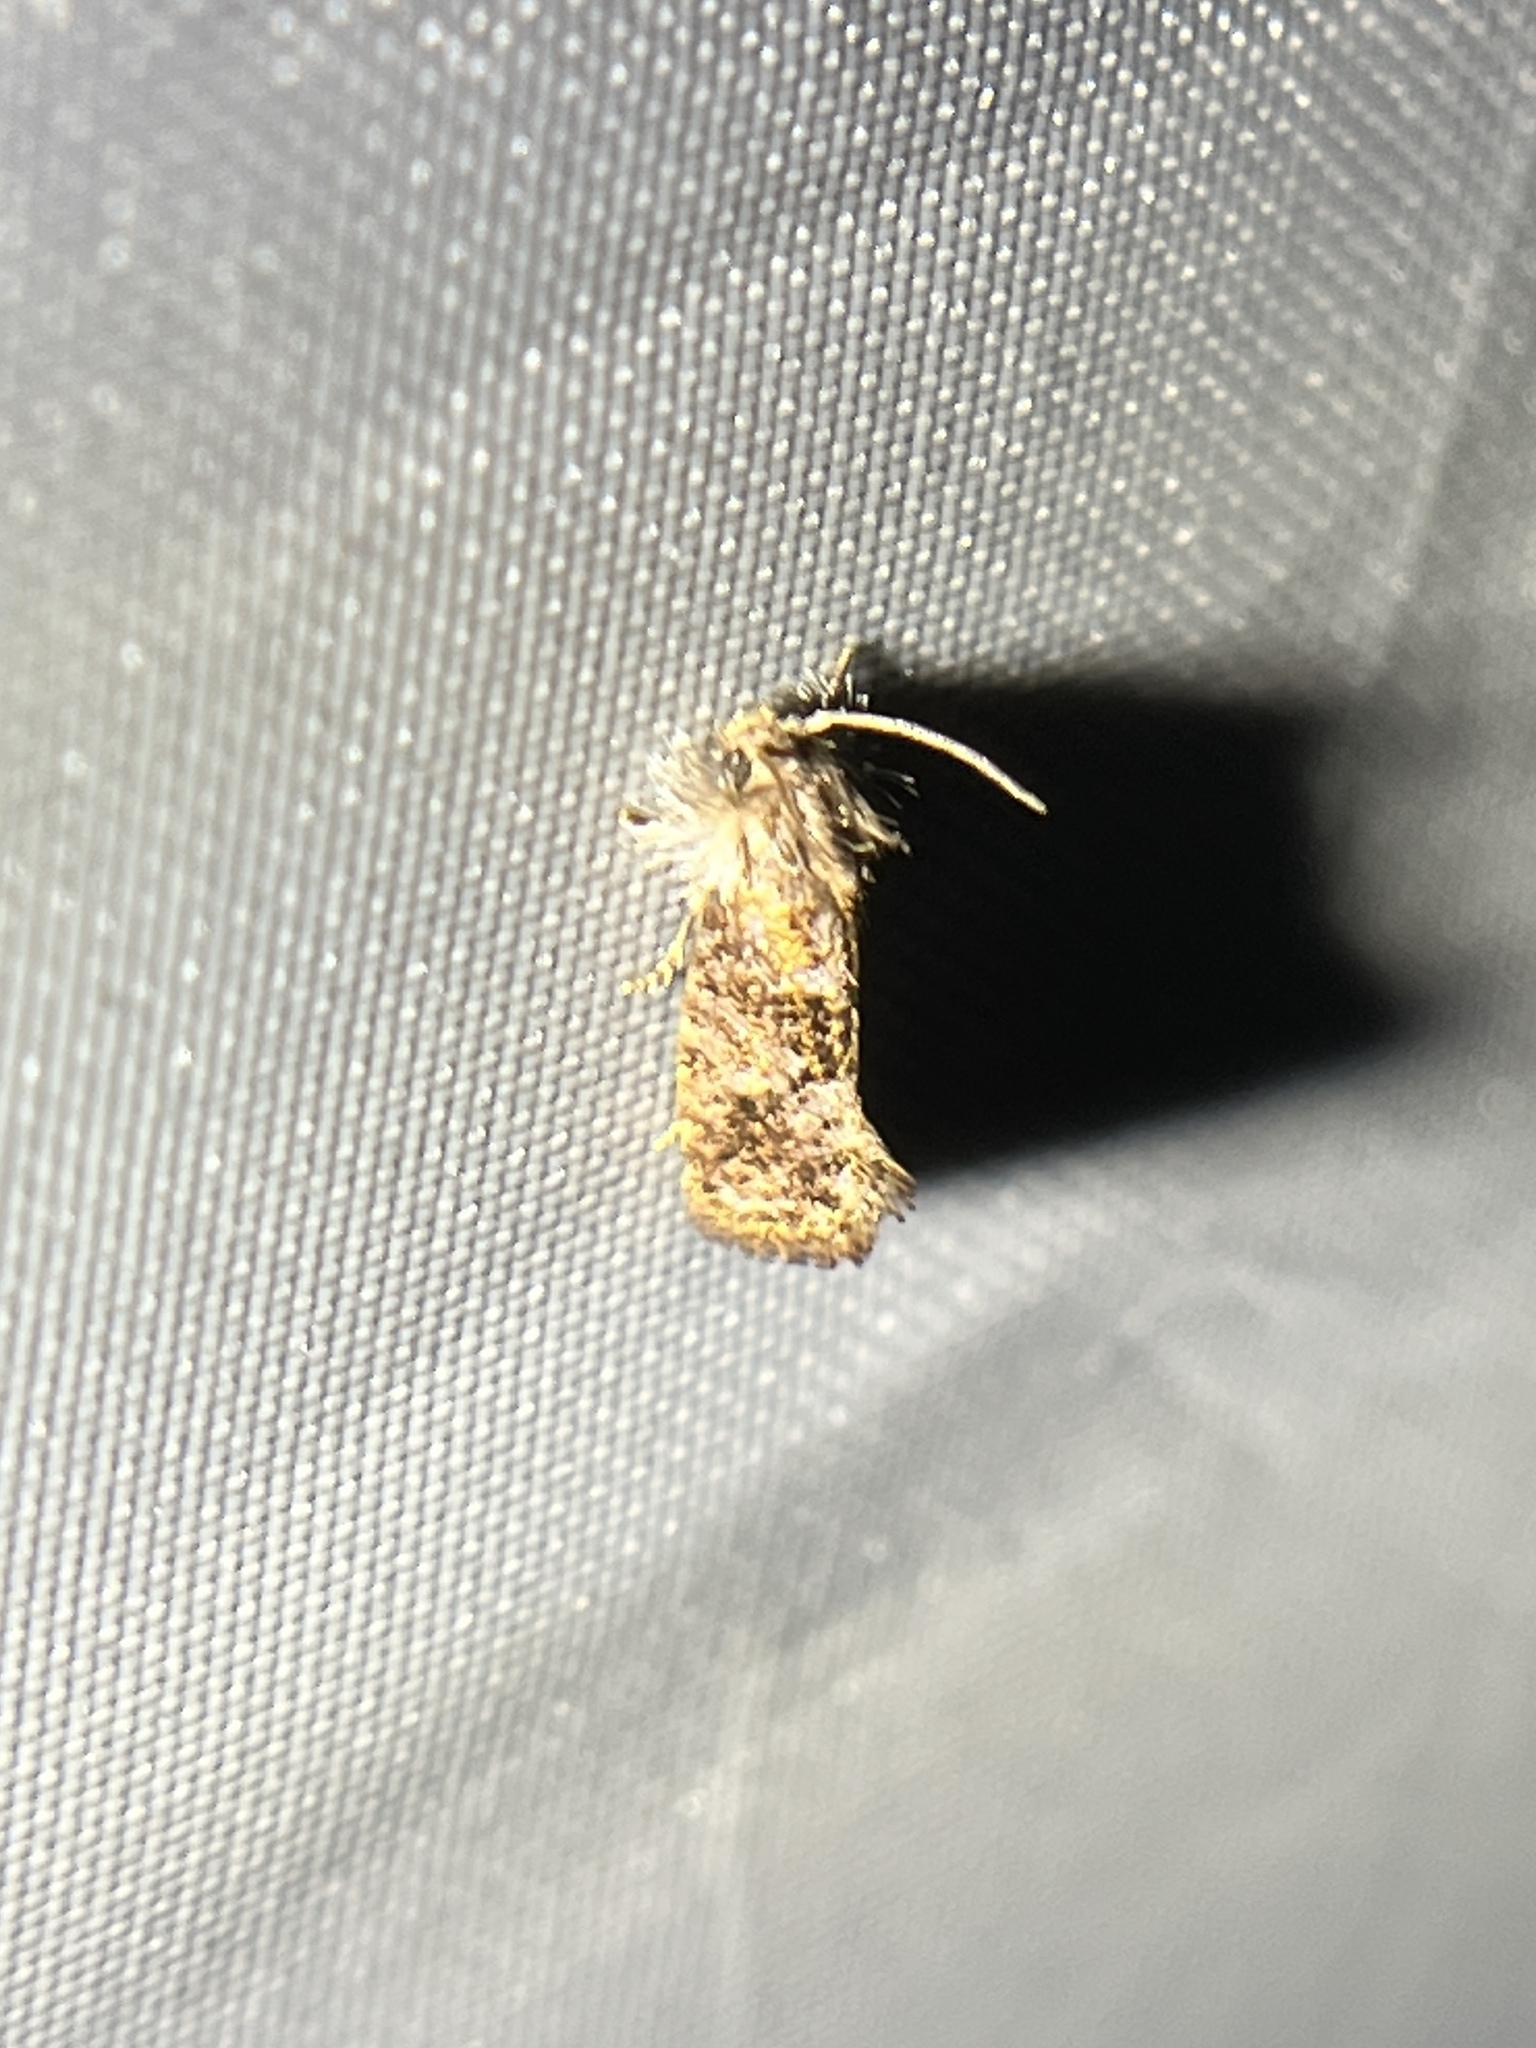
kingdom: Animalia
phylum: Arthropoda
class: Insecta
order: Lepidoptera
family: Tineidae
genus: Acrolophus
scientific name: Acrolophus panamae
